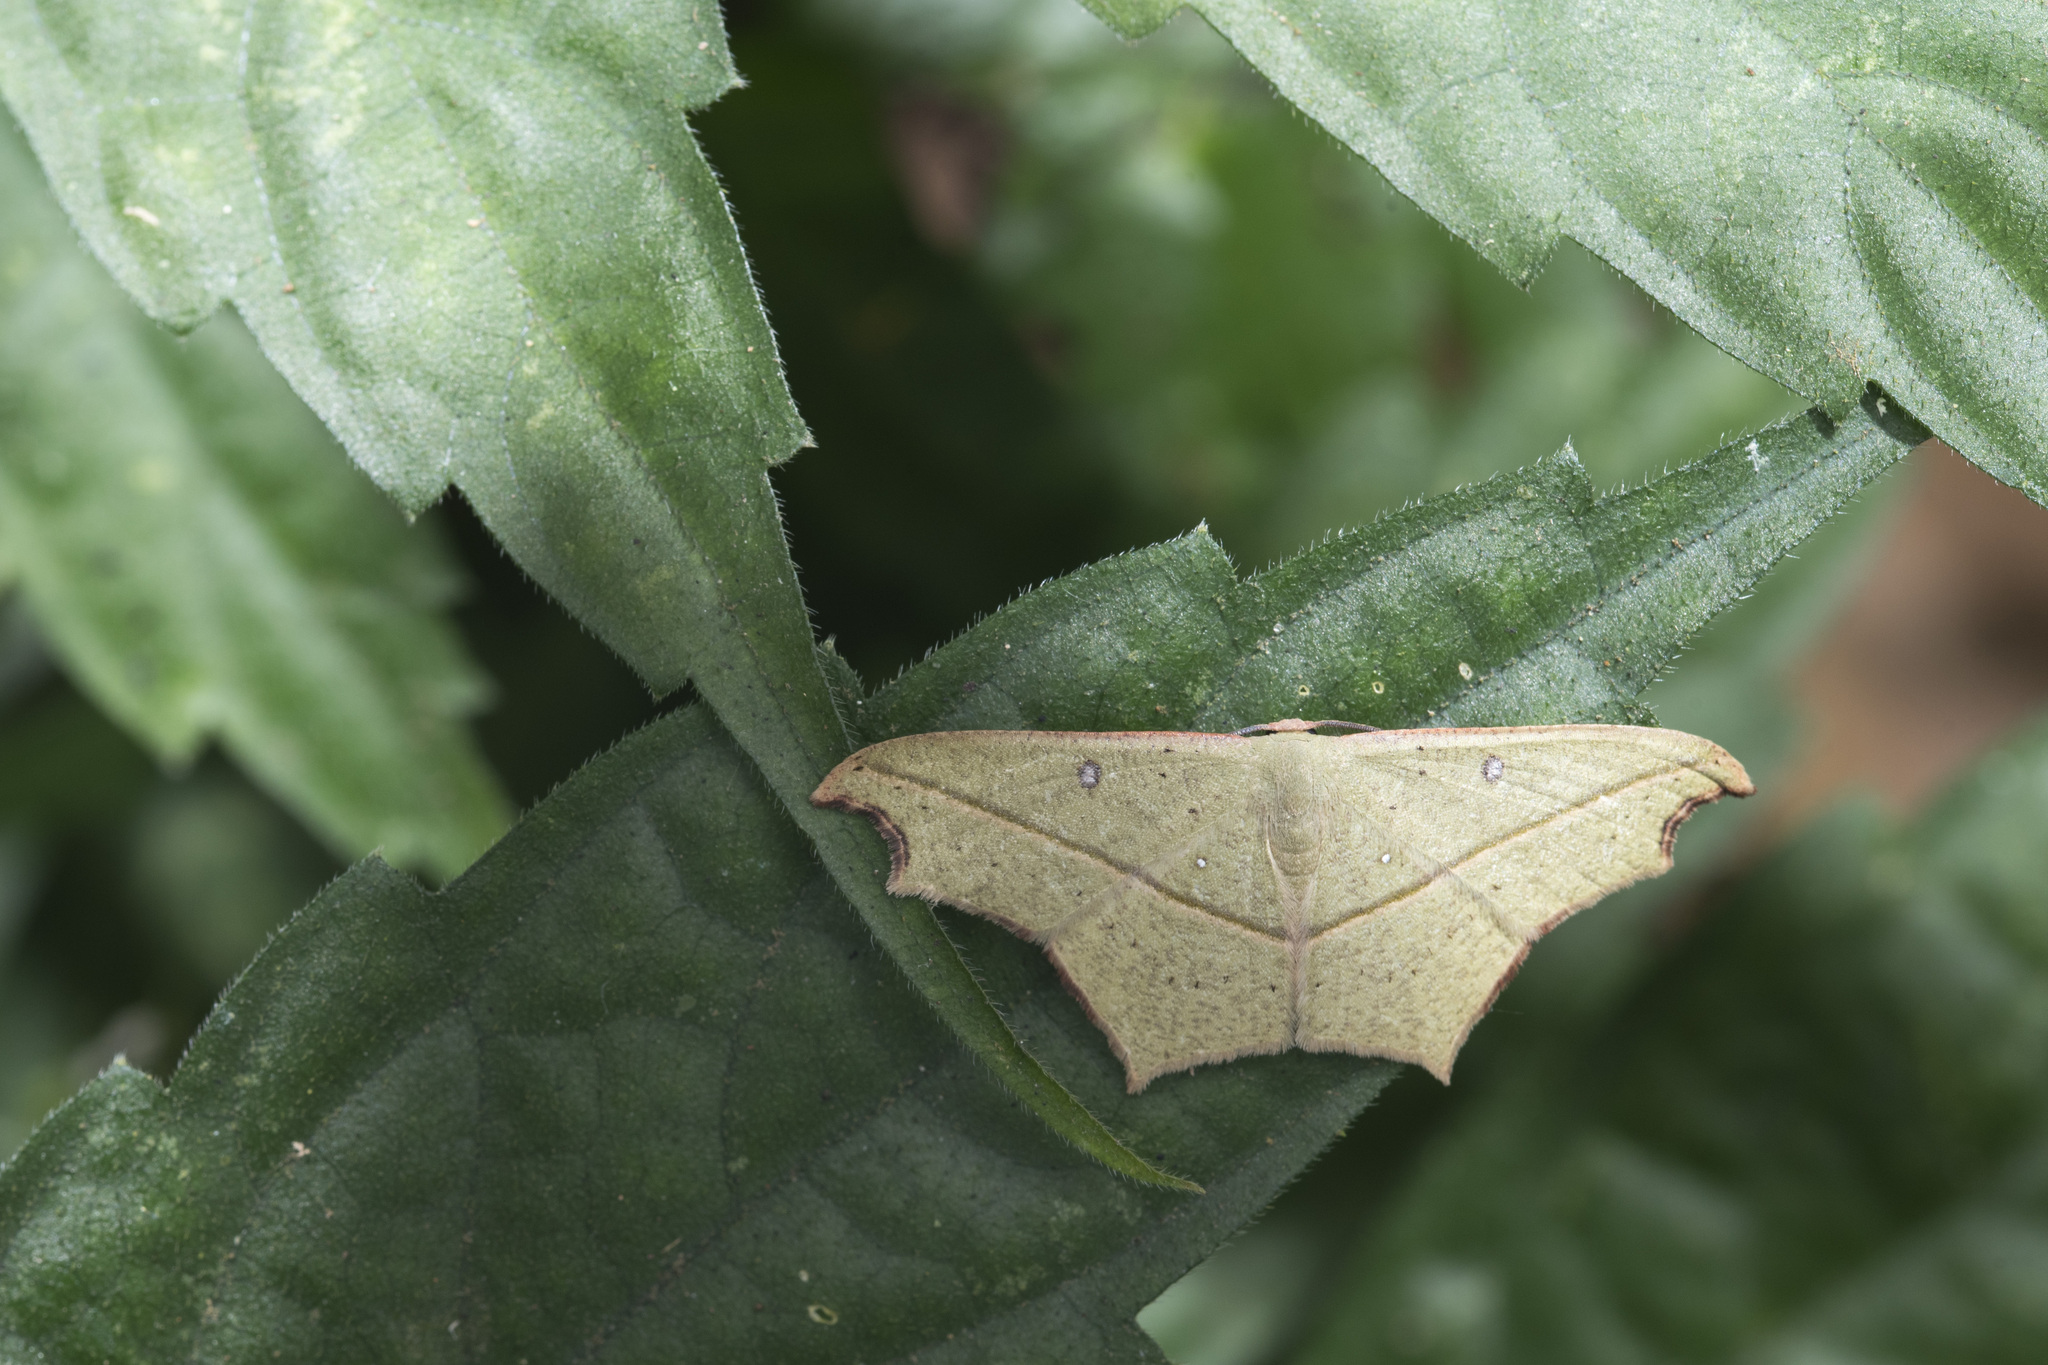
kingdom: Animalia
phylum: Arthropoda
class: Insecta
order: Lepidoptera
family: Geometridae
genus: Traminda
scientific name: Traminda aventiaria
